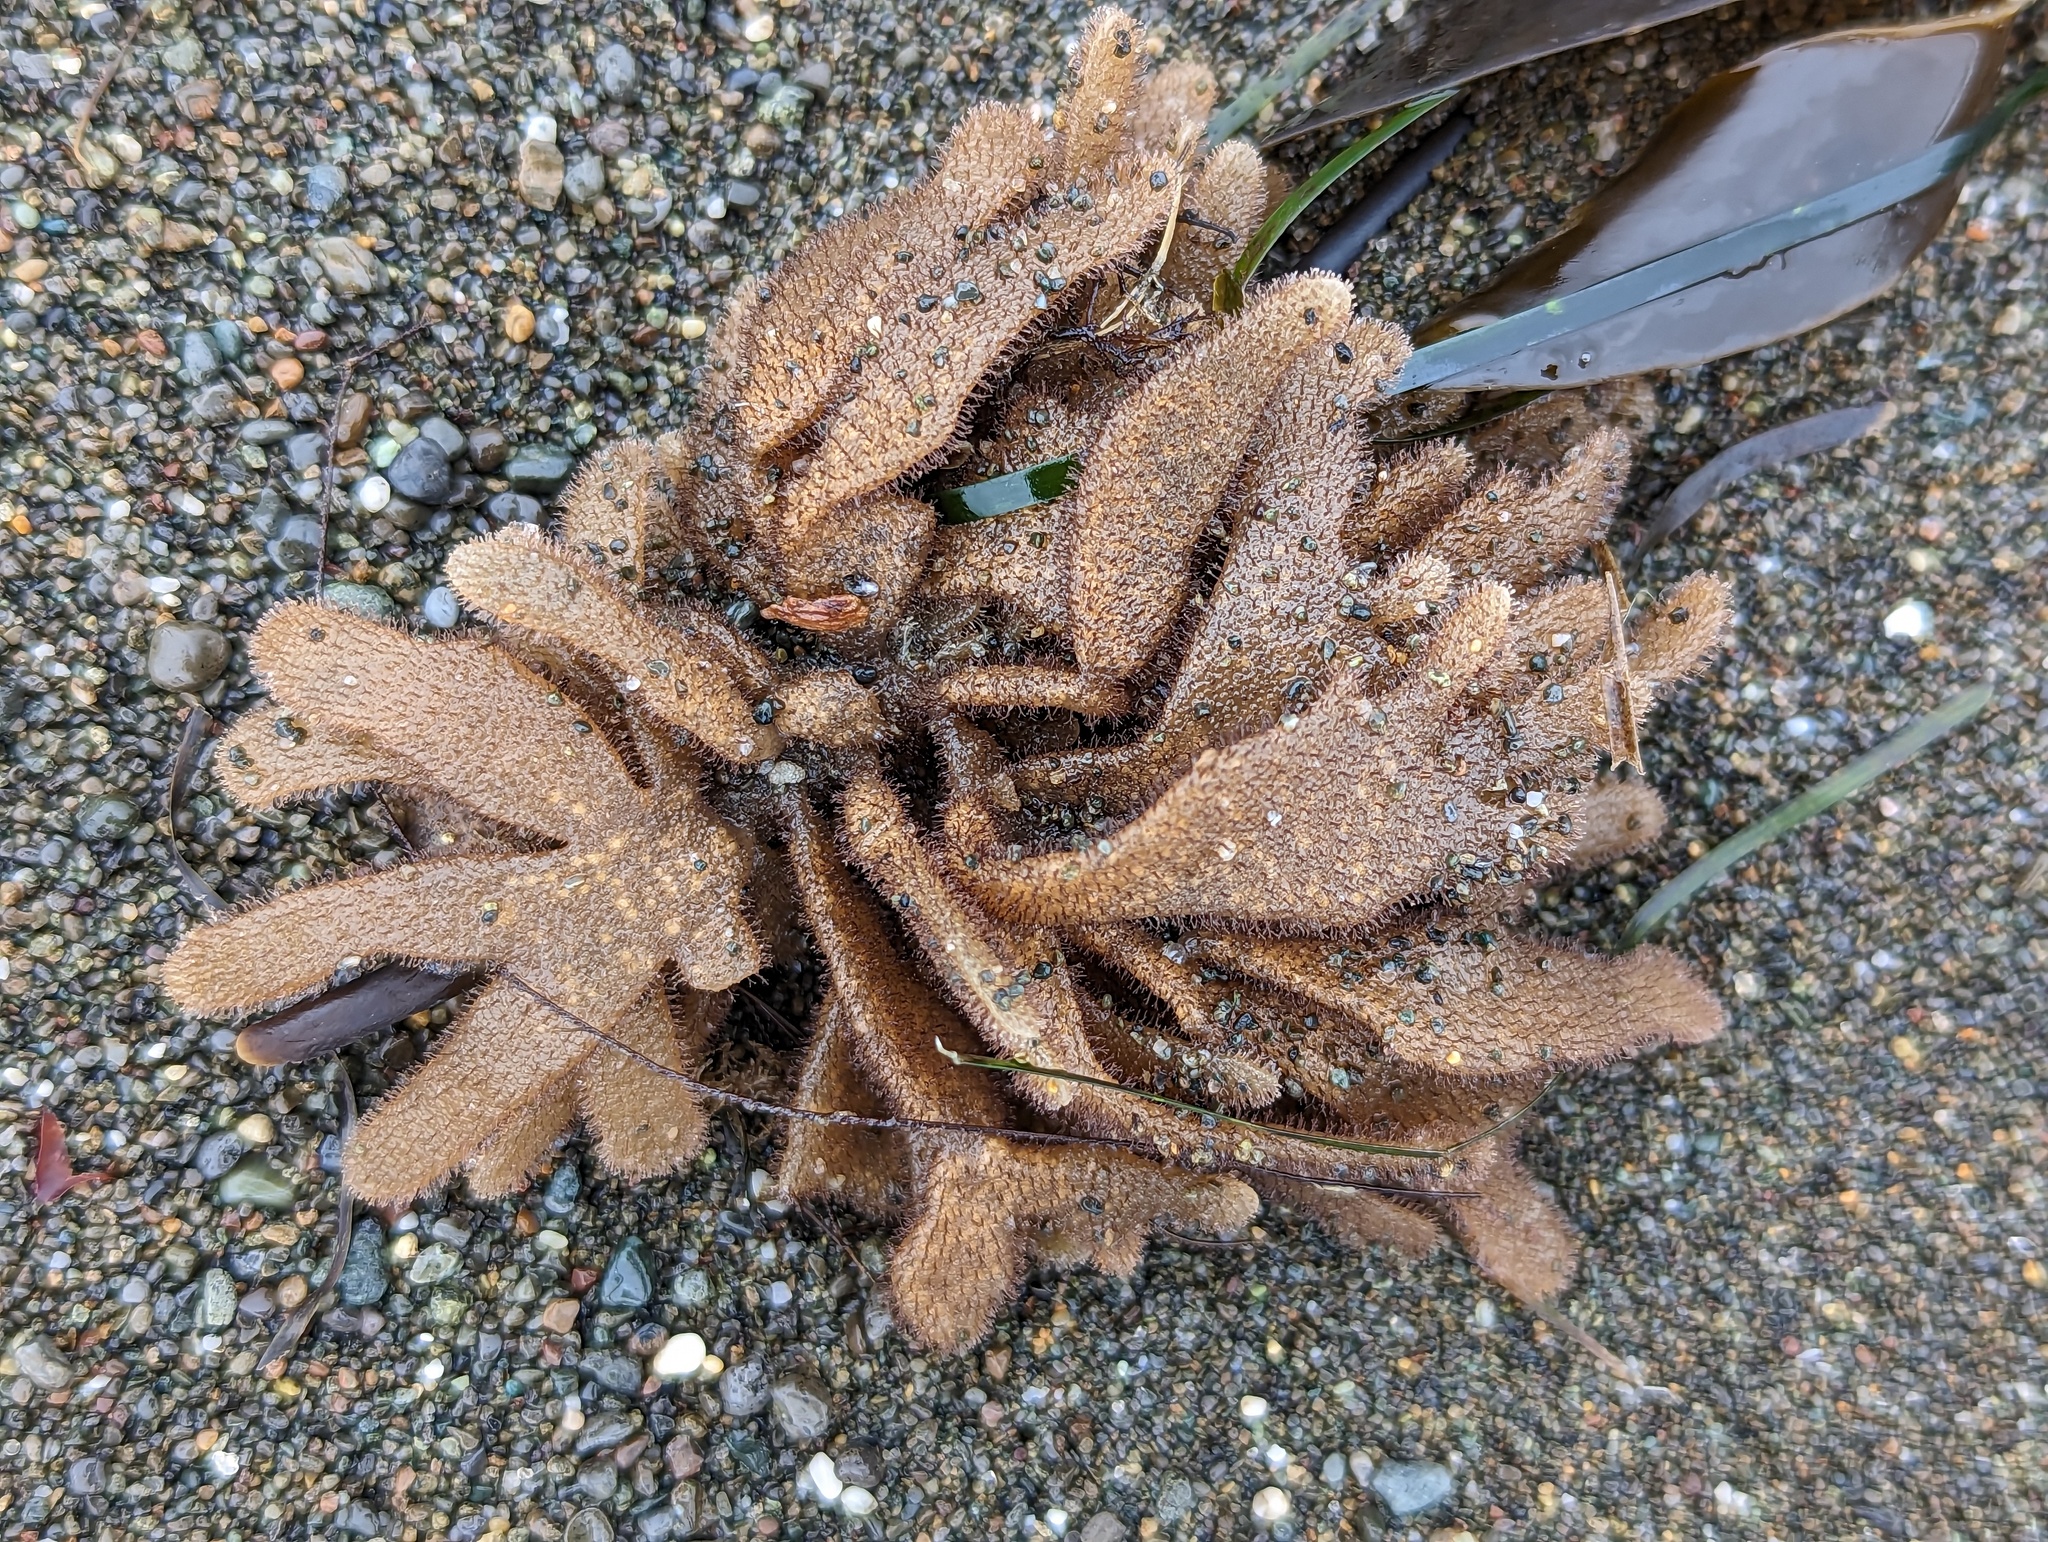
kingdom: Animalia
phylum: Bryozoa
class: Gymnolaemata
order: Ctenostomatida
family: Flustrellidridae
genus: Flustrellidra
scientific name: Flustrellidra corniculata
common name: Spiny leather bryozoan
